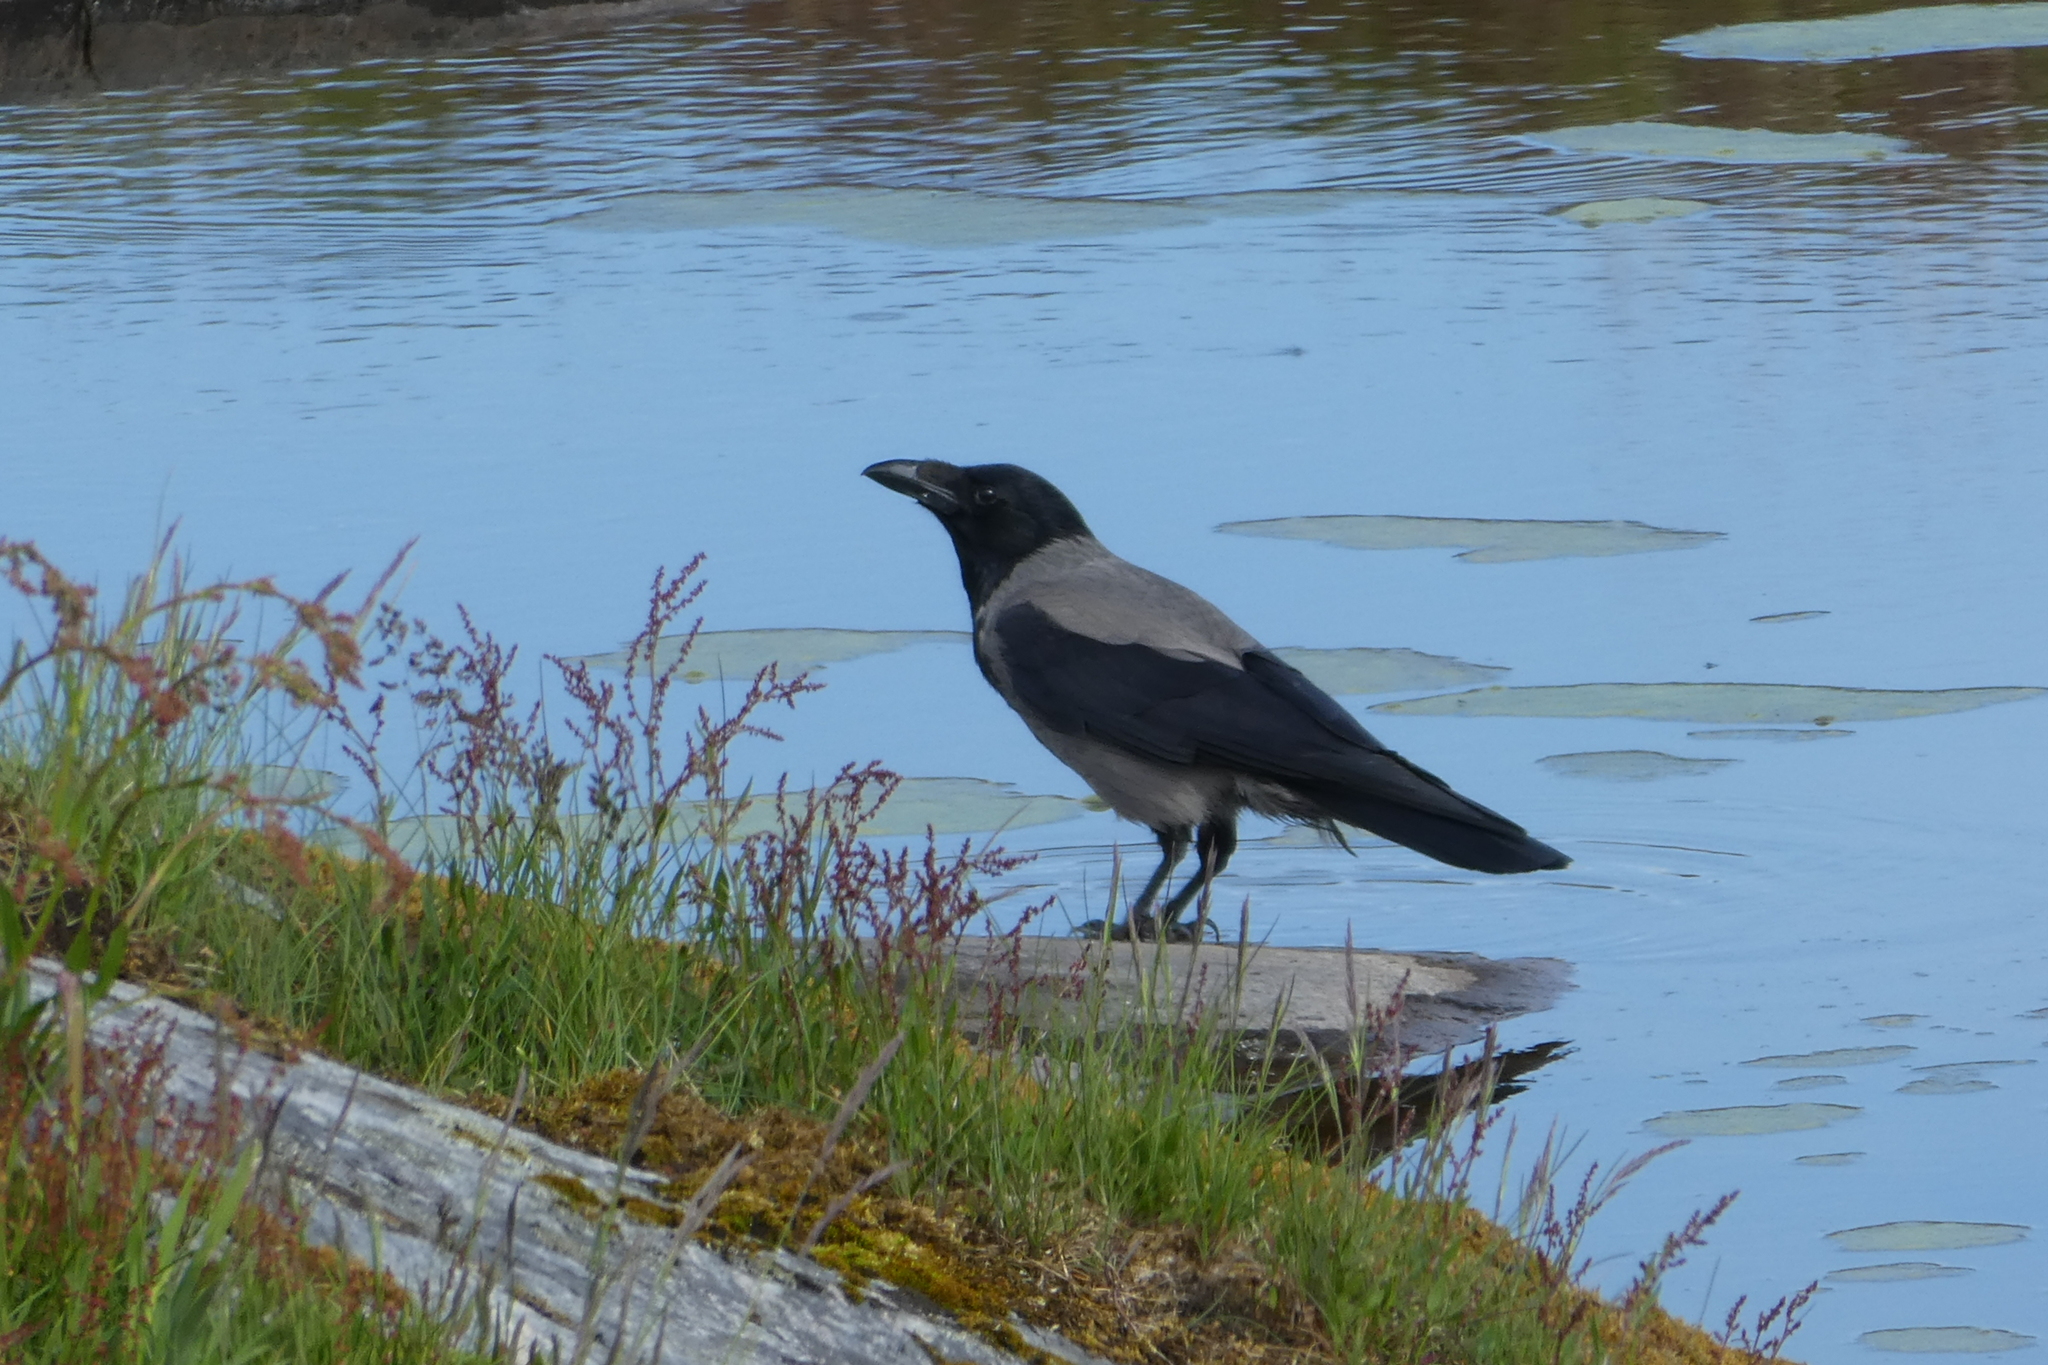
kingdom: Animalia
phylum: Chordata
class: Aves
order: Passeriformes
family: Corvidae
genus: Corvus
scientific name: Corvus cornix
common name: Hooded crow
